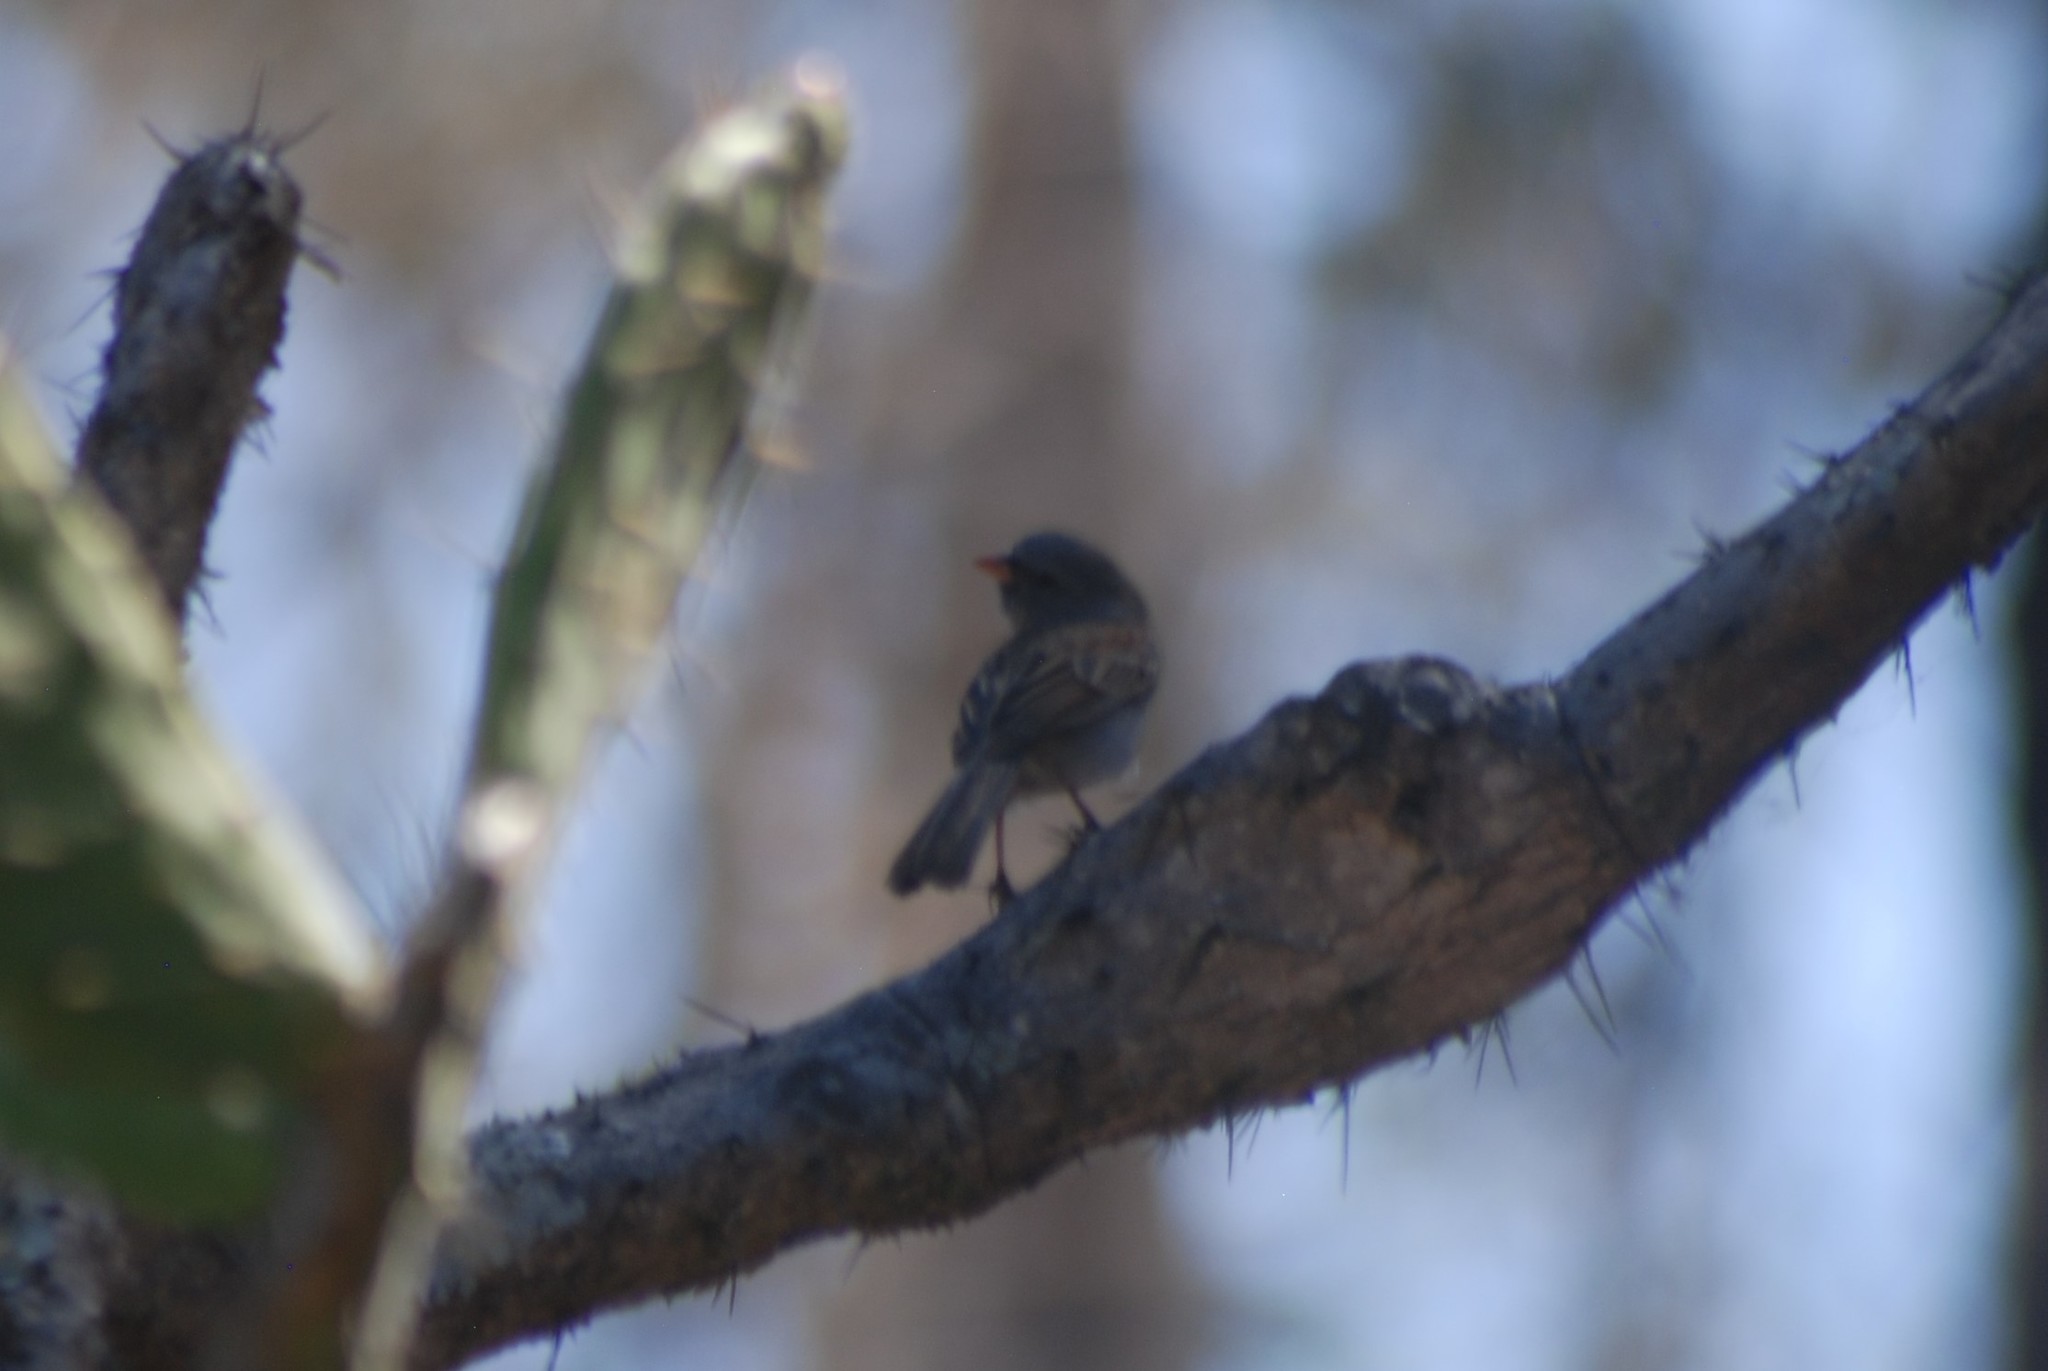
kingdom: Animalia
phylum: Chordata
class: Aves
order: Passeriformes
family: Passerellidae
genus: Spizella
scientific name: Spizella atrogularis
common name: Black-chinned sparrow
